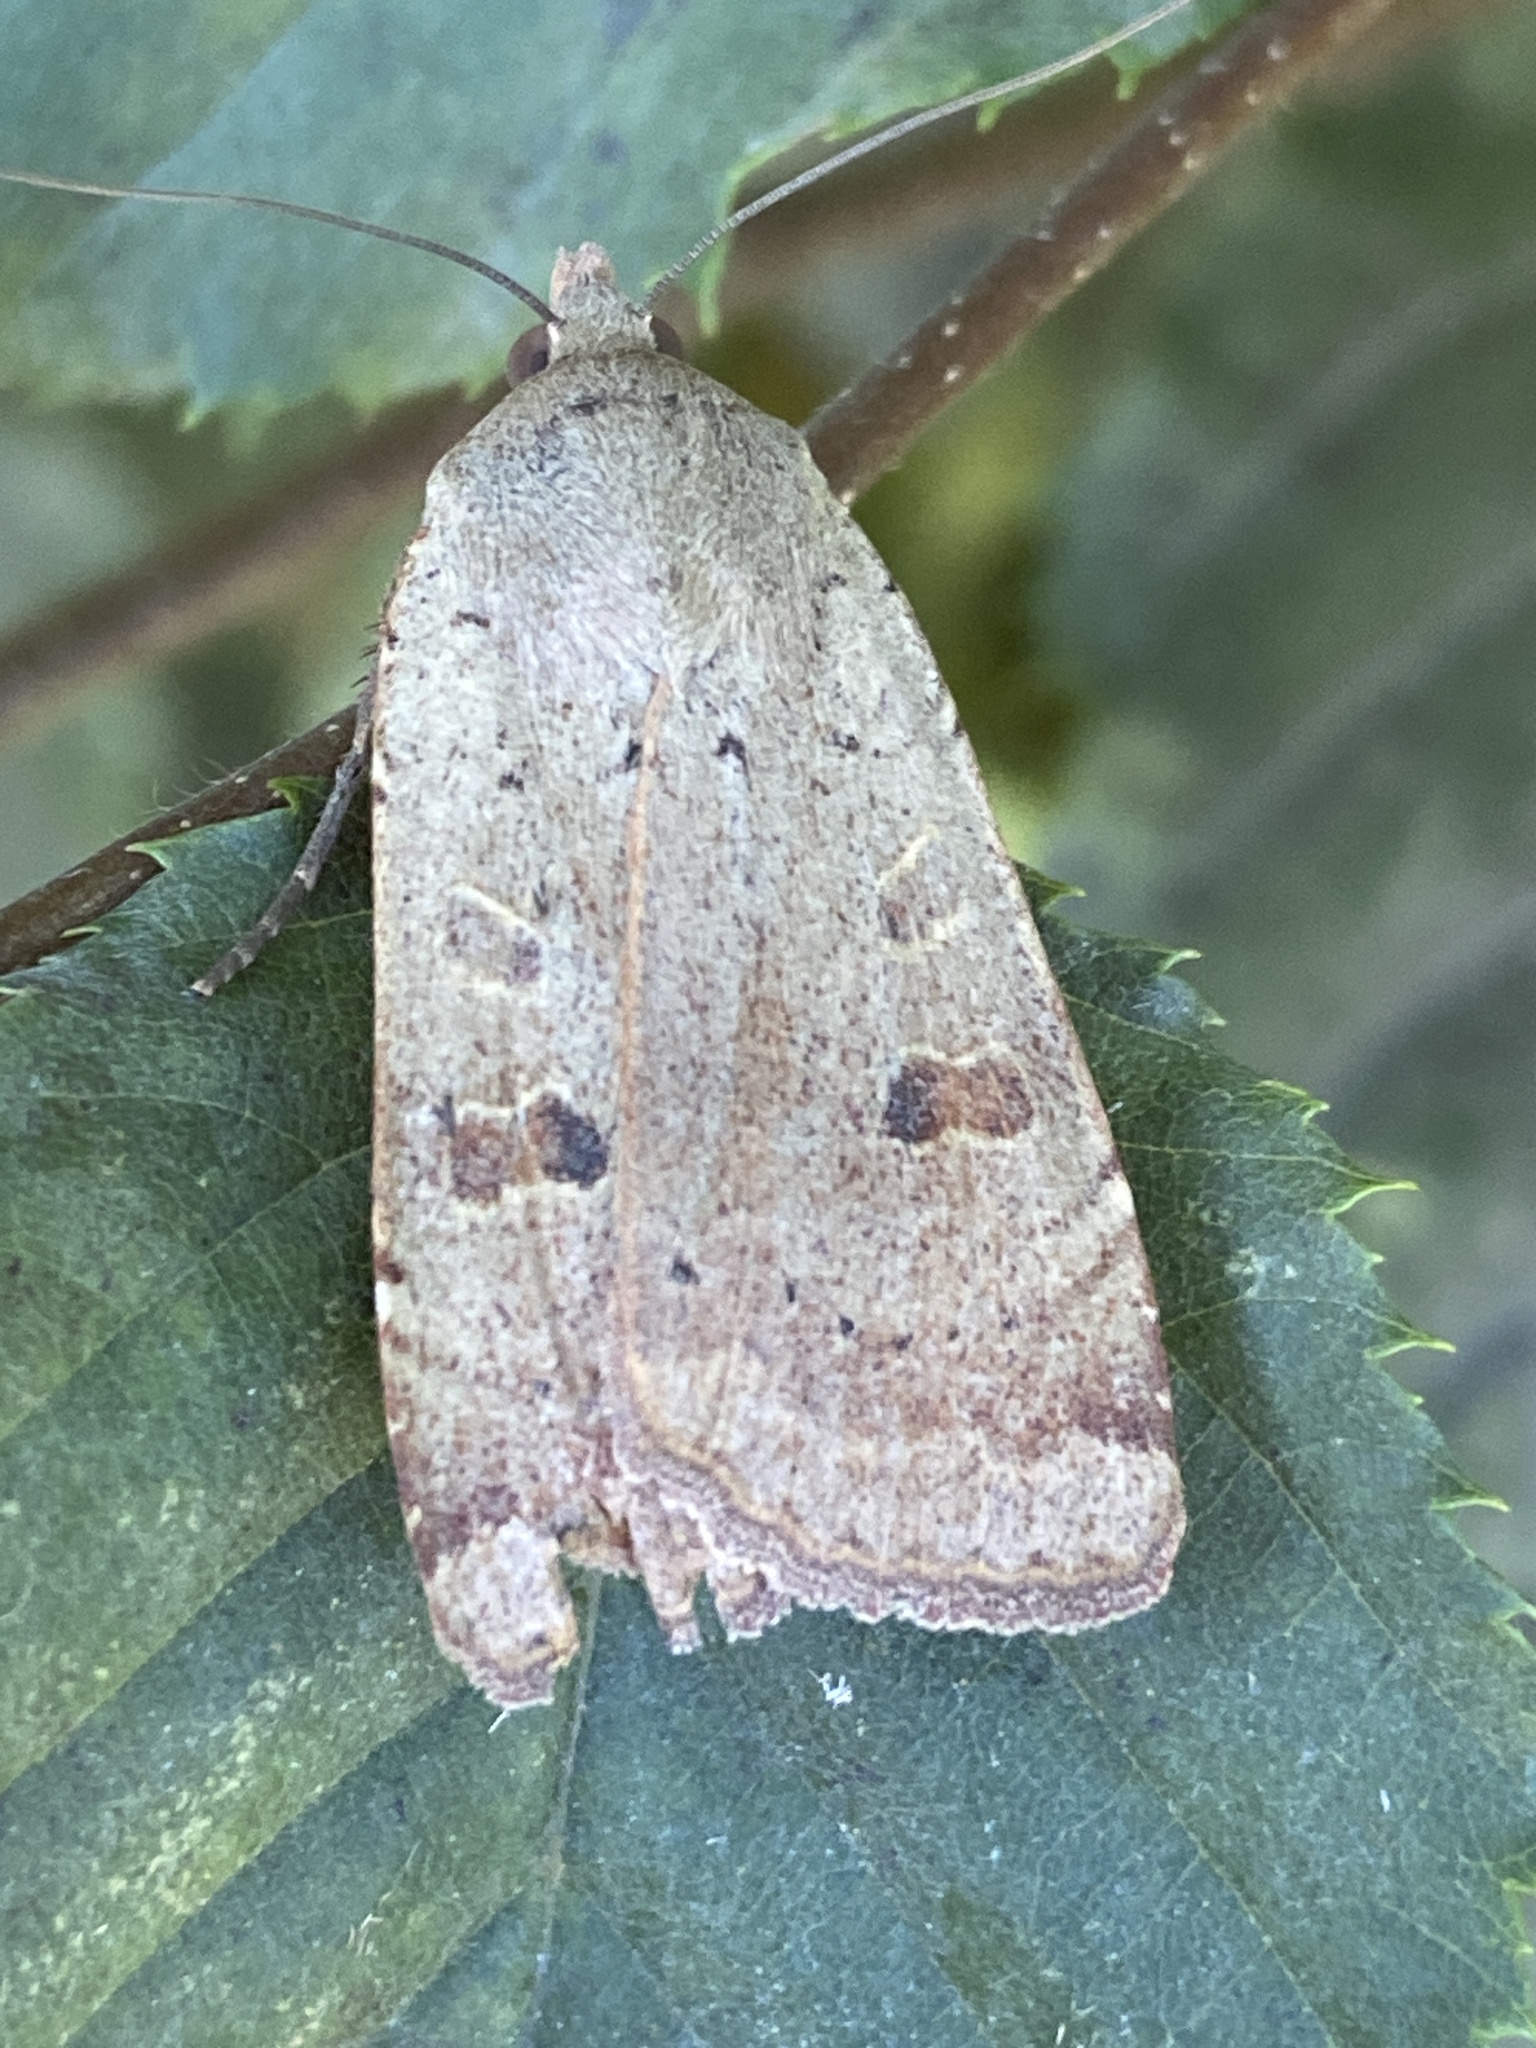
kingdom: Animalia
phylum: Arthropoda
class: Insecta
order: Lepidoptera
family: Noctuidae
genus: Noctua
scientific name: Noctua comes
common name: Lesser yellow underwing
